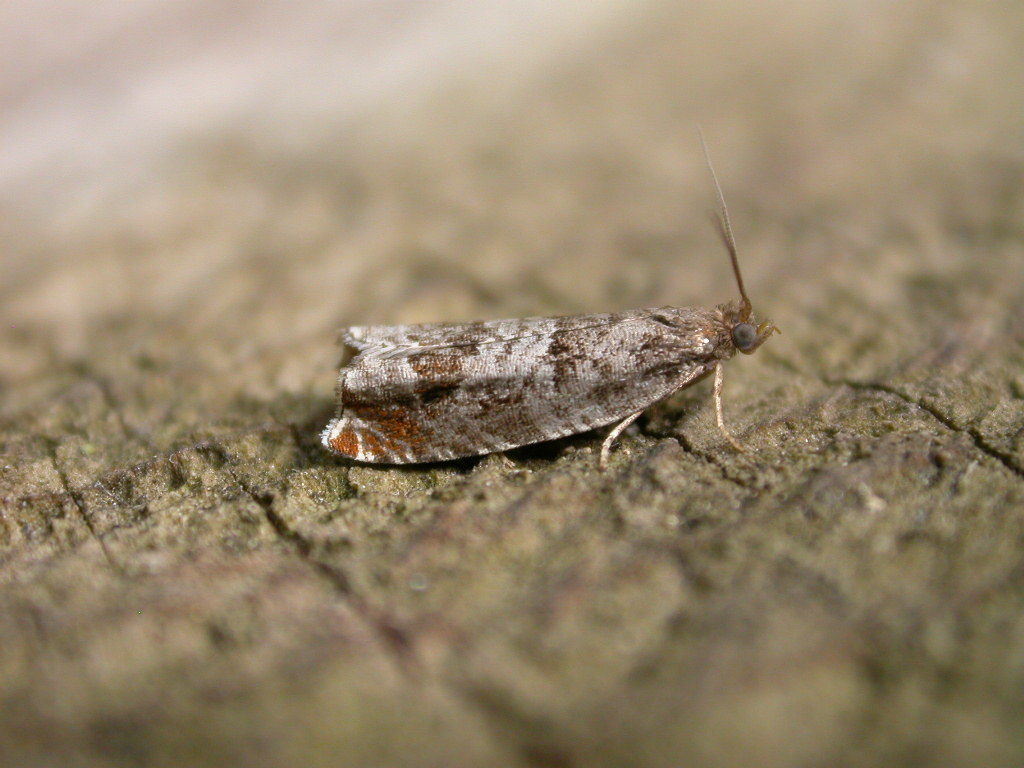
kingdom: Animalia
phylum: Arthropoda
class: Insecta
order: Lepidoptera
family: Tortricidae
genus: Ancylis
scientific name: Ancylis achatana
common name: Triangle-marked roller
